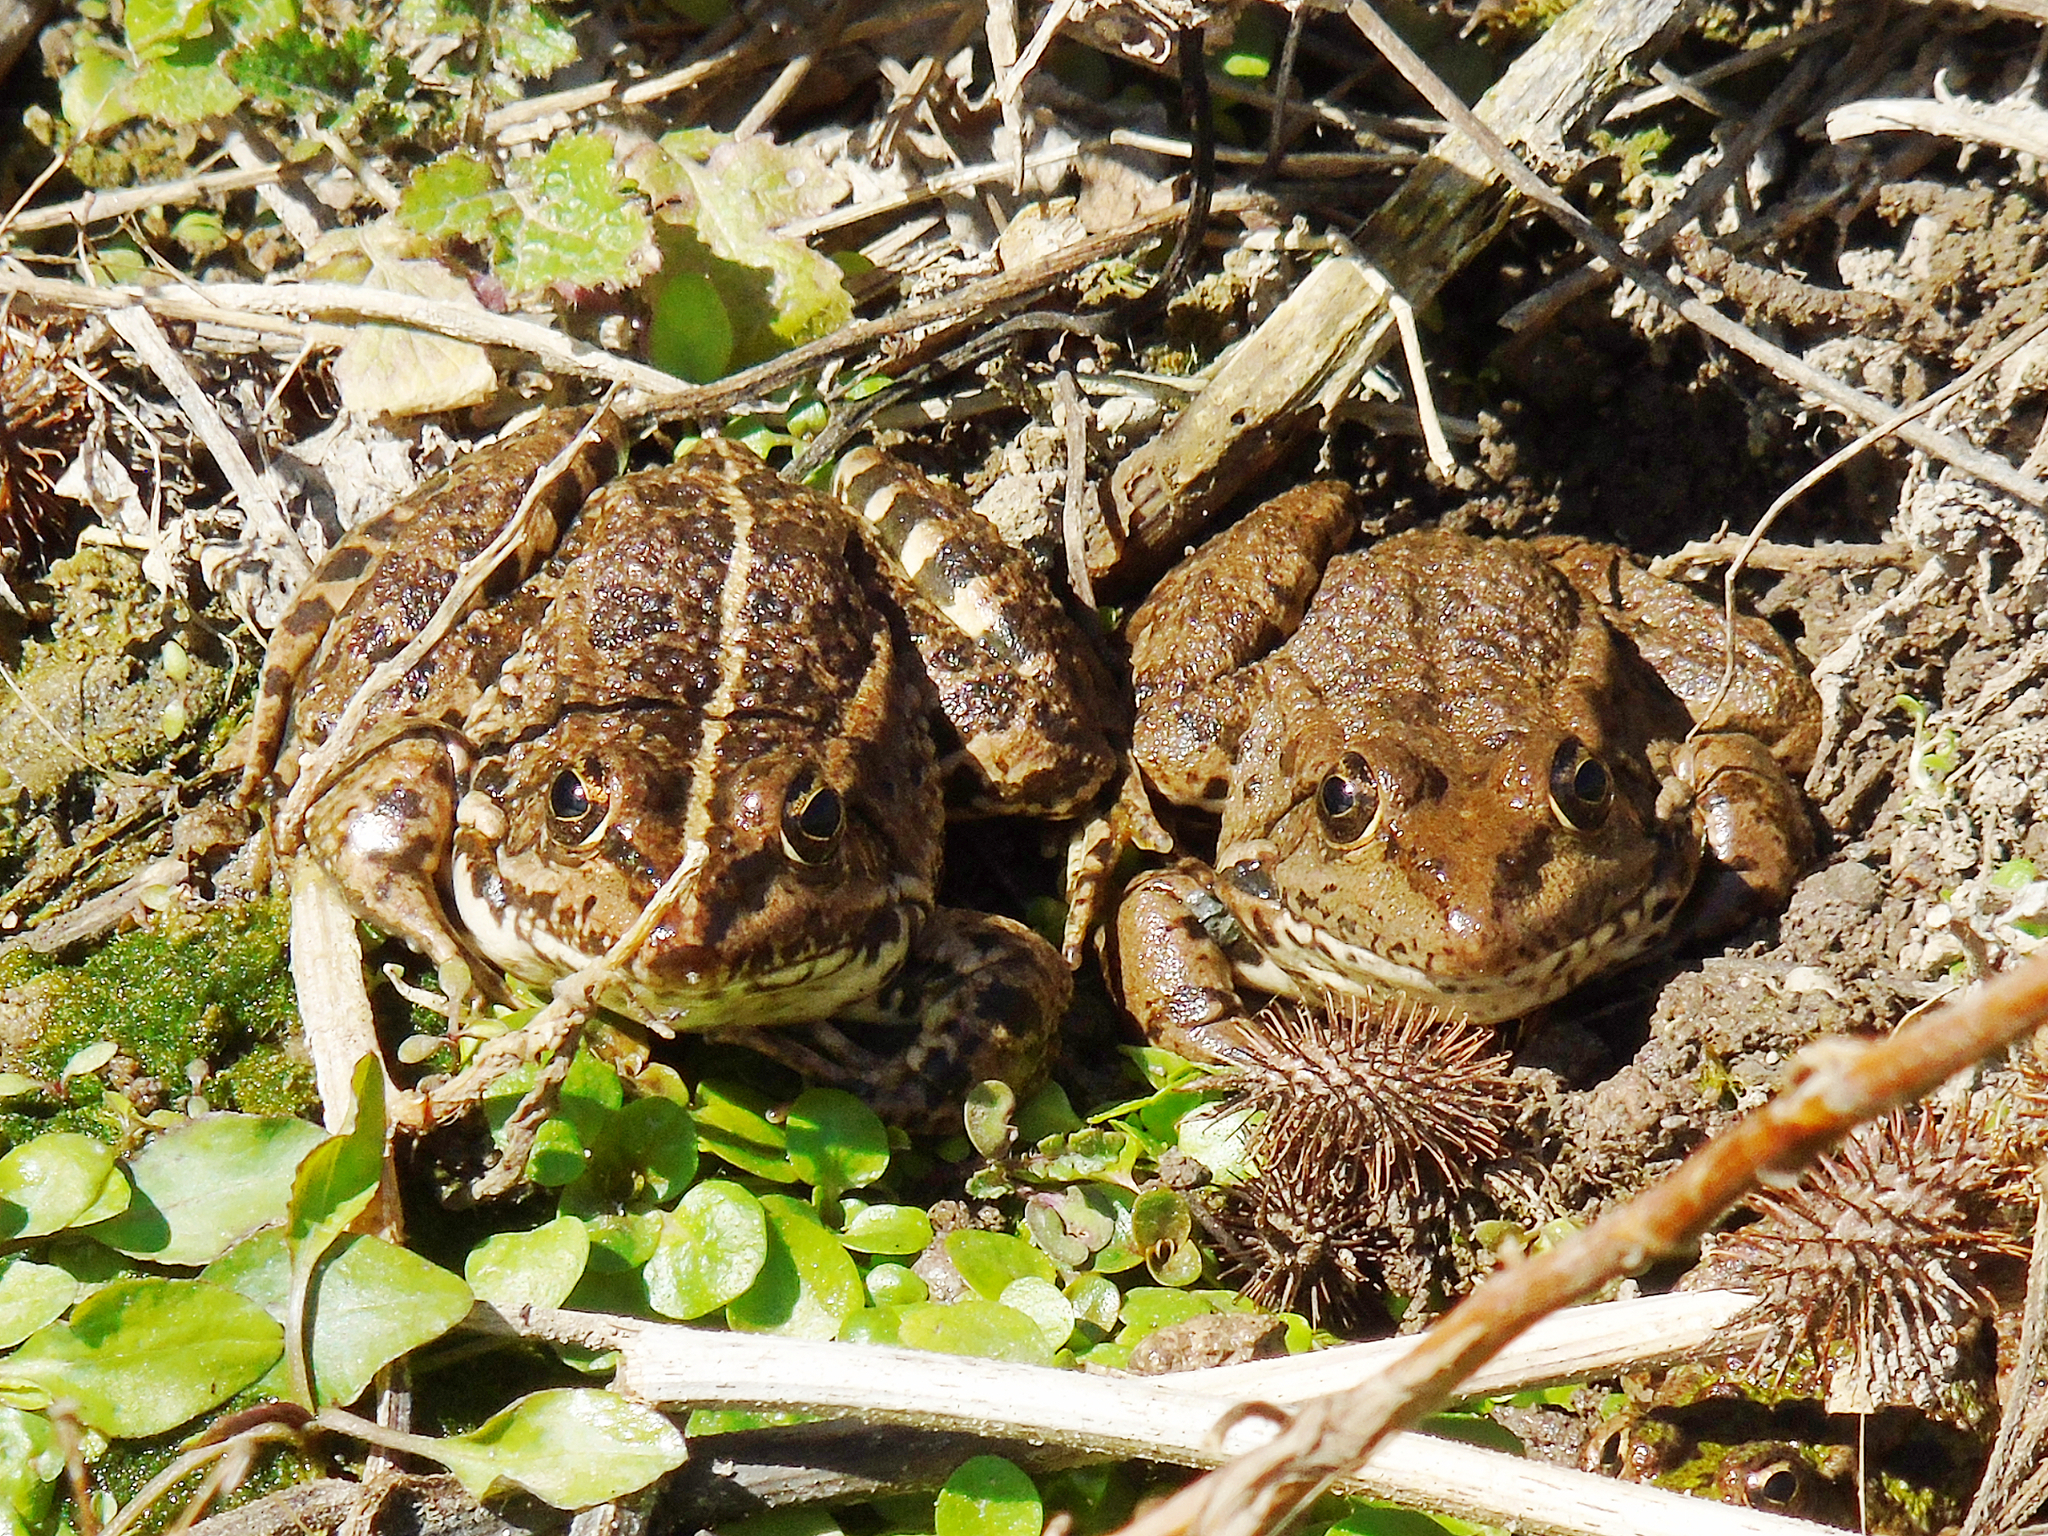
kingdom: Animalia
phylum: Chordata
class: Amphibia
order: Anura
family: Ranidae
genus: Pelophylax
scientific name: Pelophylax ridibundus
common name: Marsh frog
